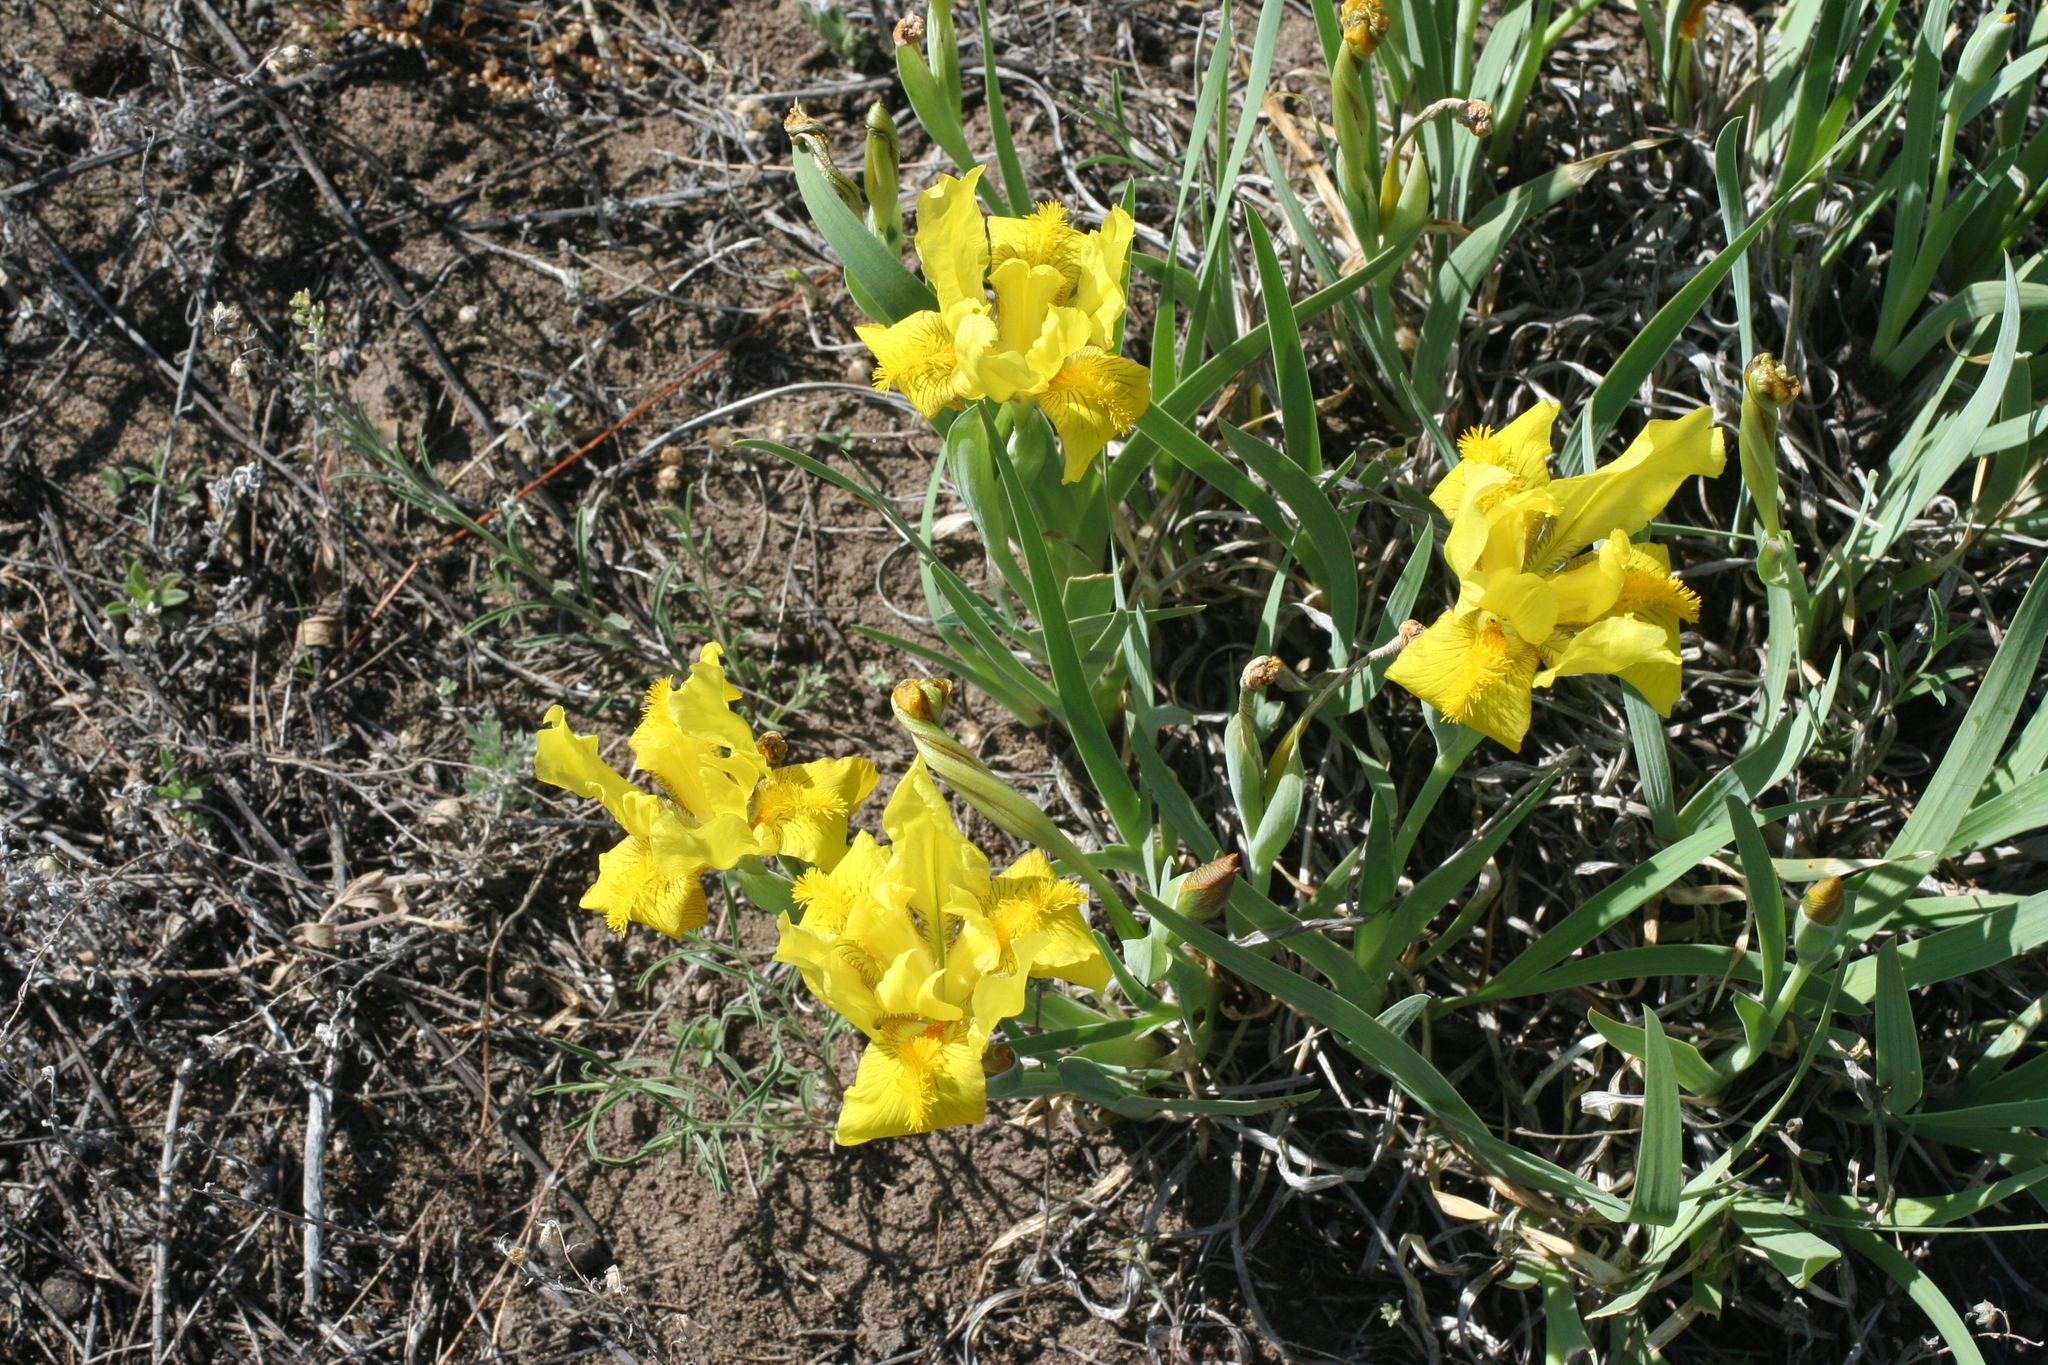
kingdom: Plantae
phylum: Tracheophyta
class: Liliopsida
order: Asparagales
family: Iridaceae
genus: Iris
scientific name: Iris humilis
